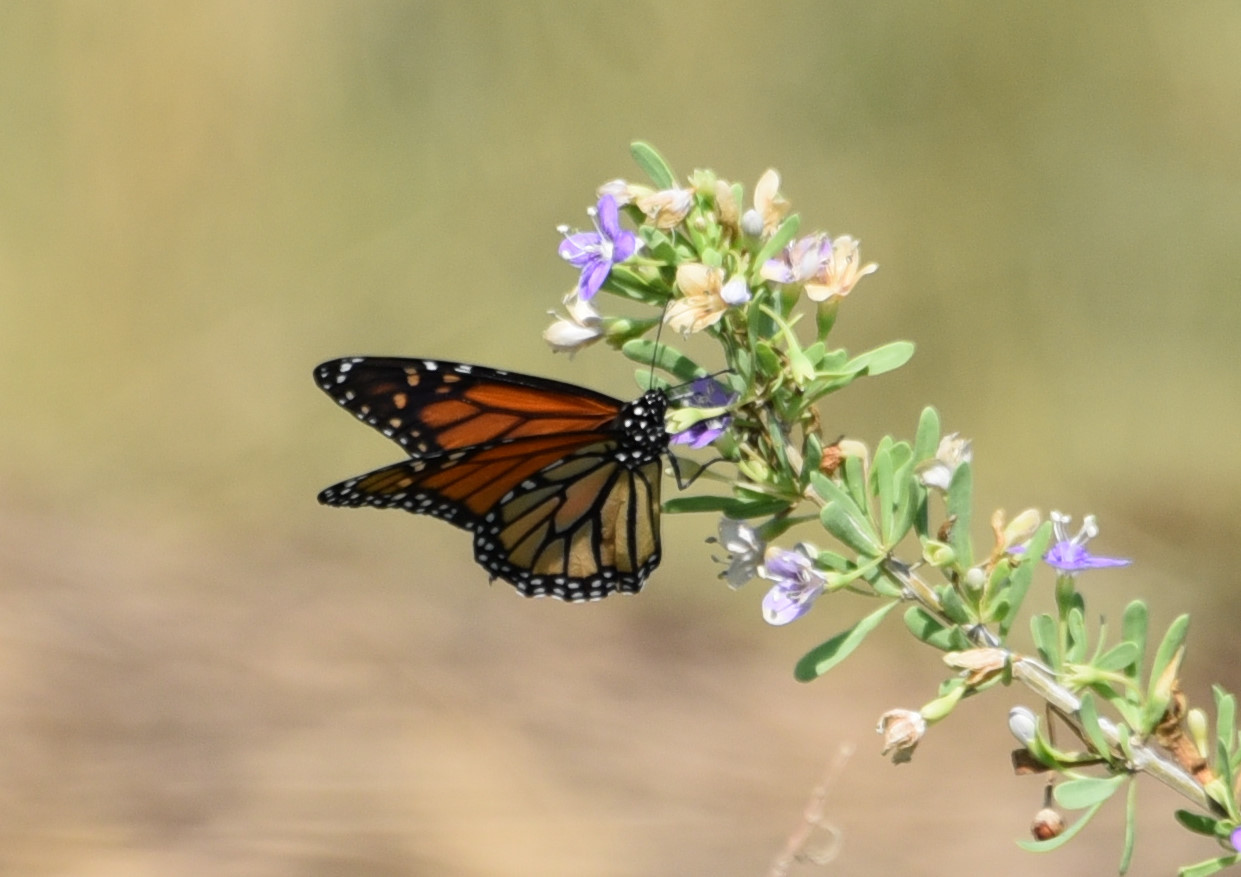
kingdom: Animalia
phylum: Arthropoda
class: Insecta
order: Lepidoptera
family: Nymphalidae
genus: Danaus
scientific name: Danaus plexippus
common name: Monarch
